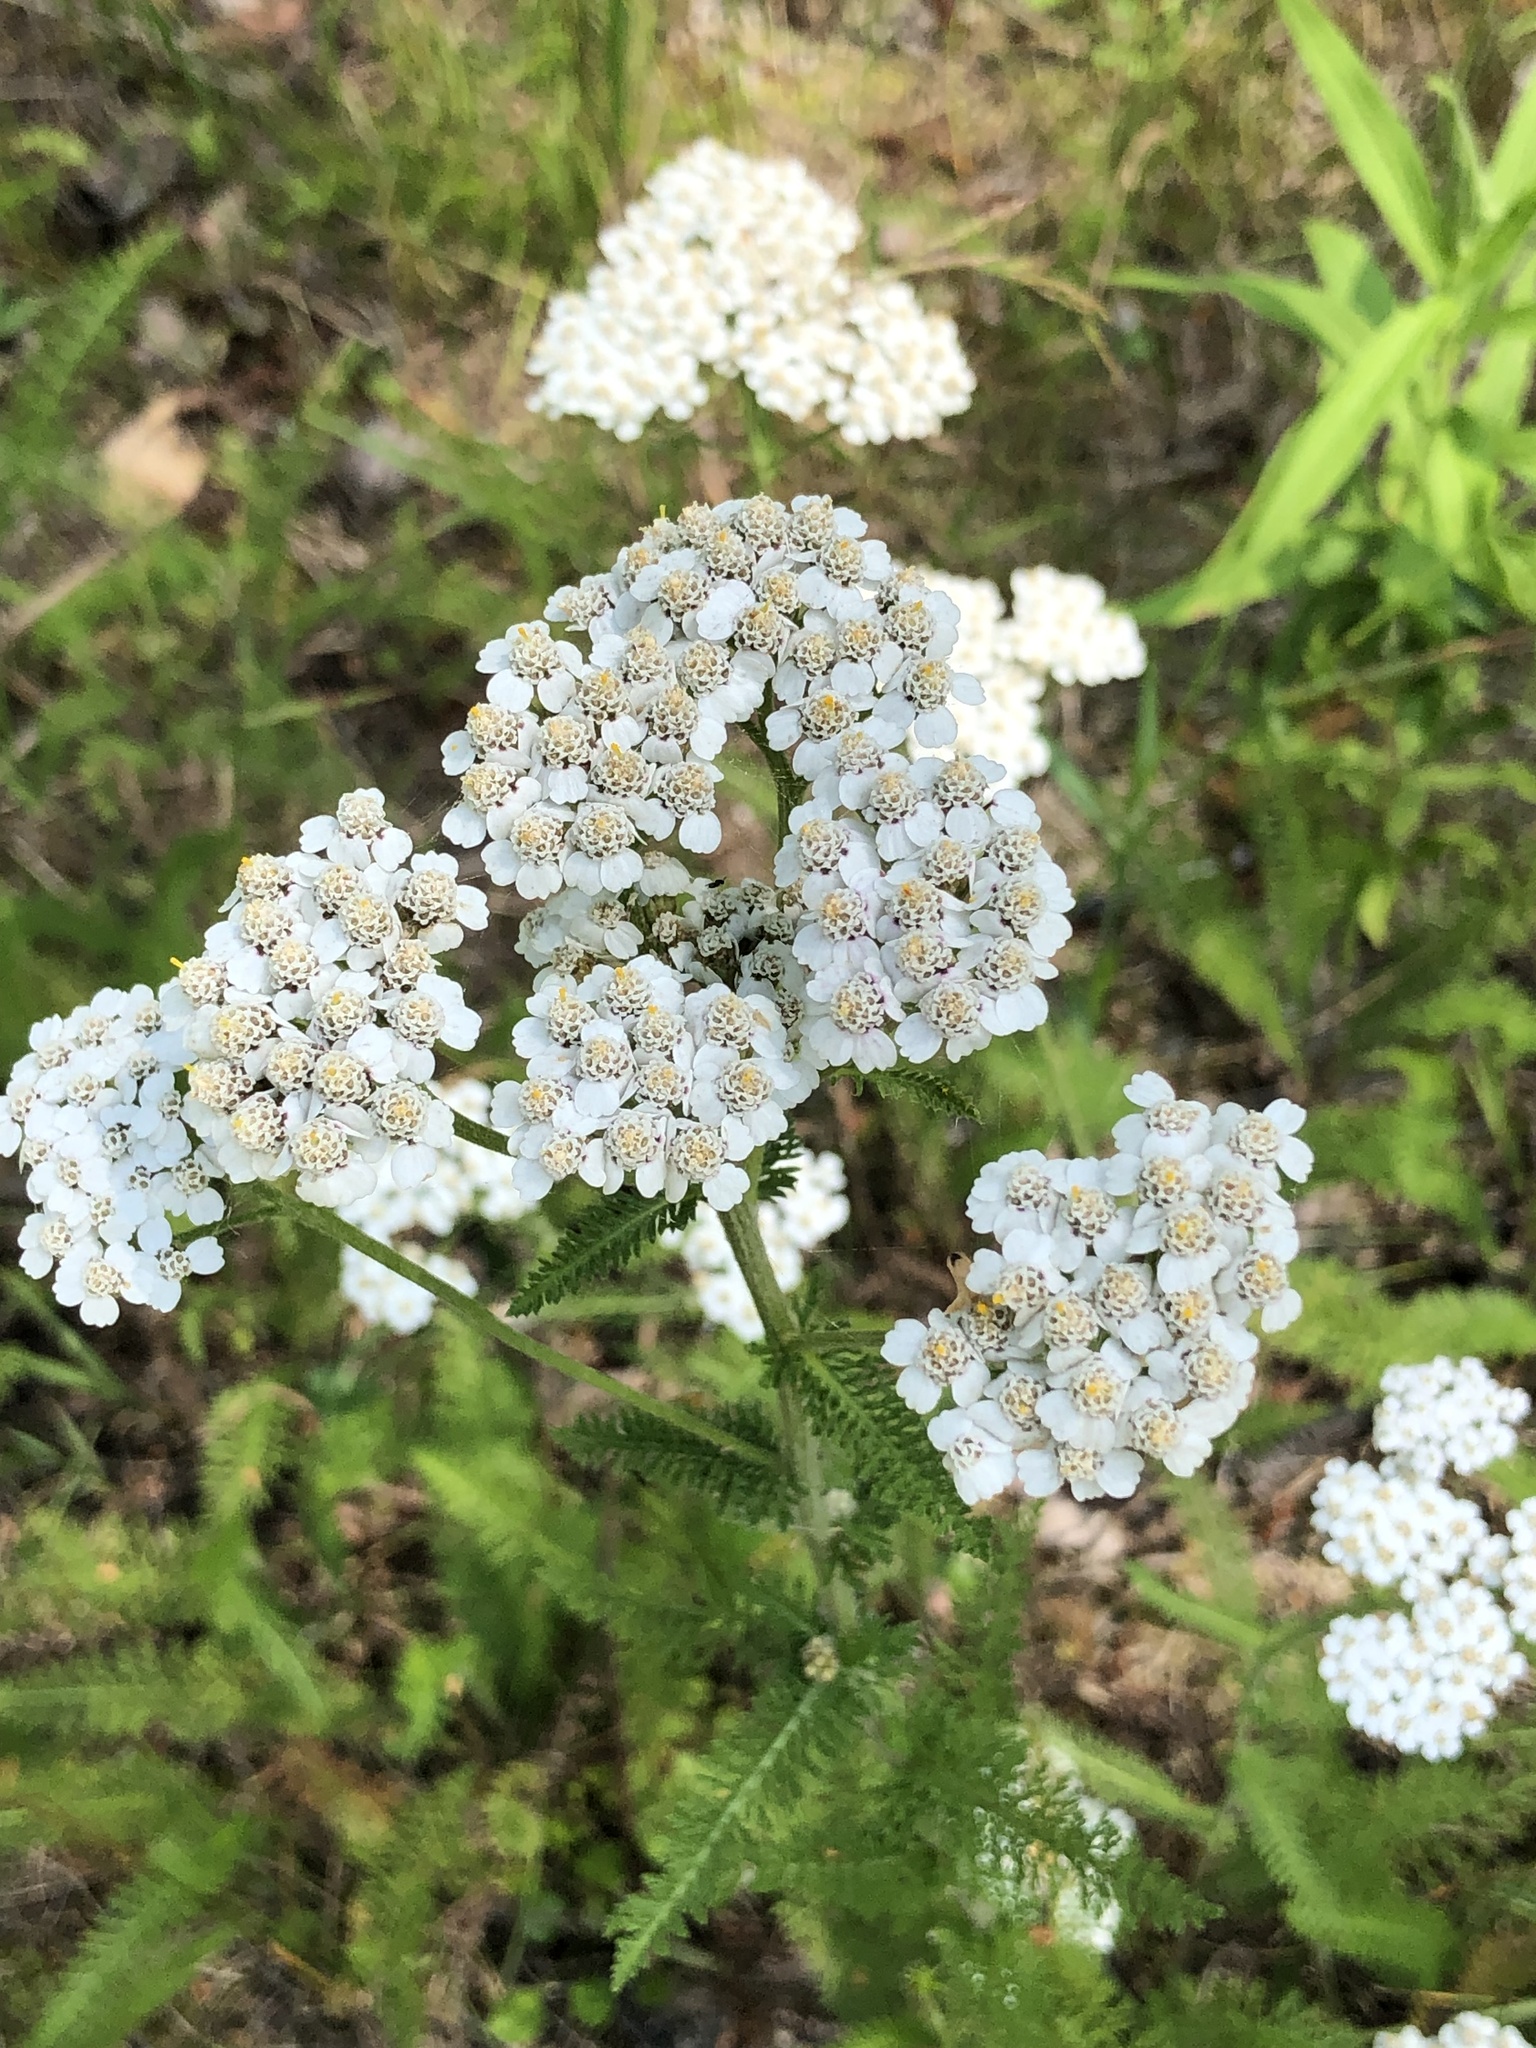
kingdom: Plantae
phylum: Tracheophyta
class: Magnoliopsida
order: Asterales
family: Asteraceae
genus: Achillea
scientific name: Achillea millefolium
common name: Yarrow
